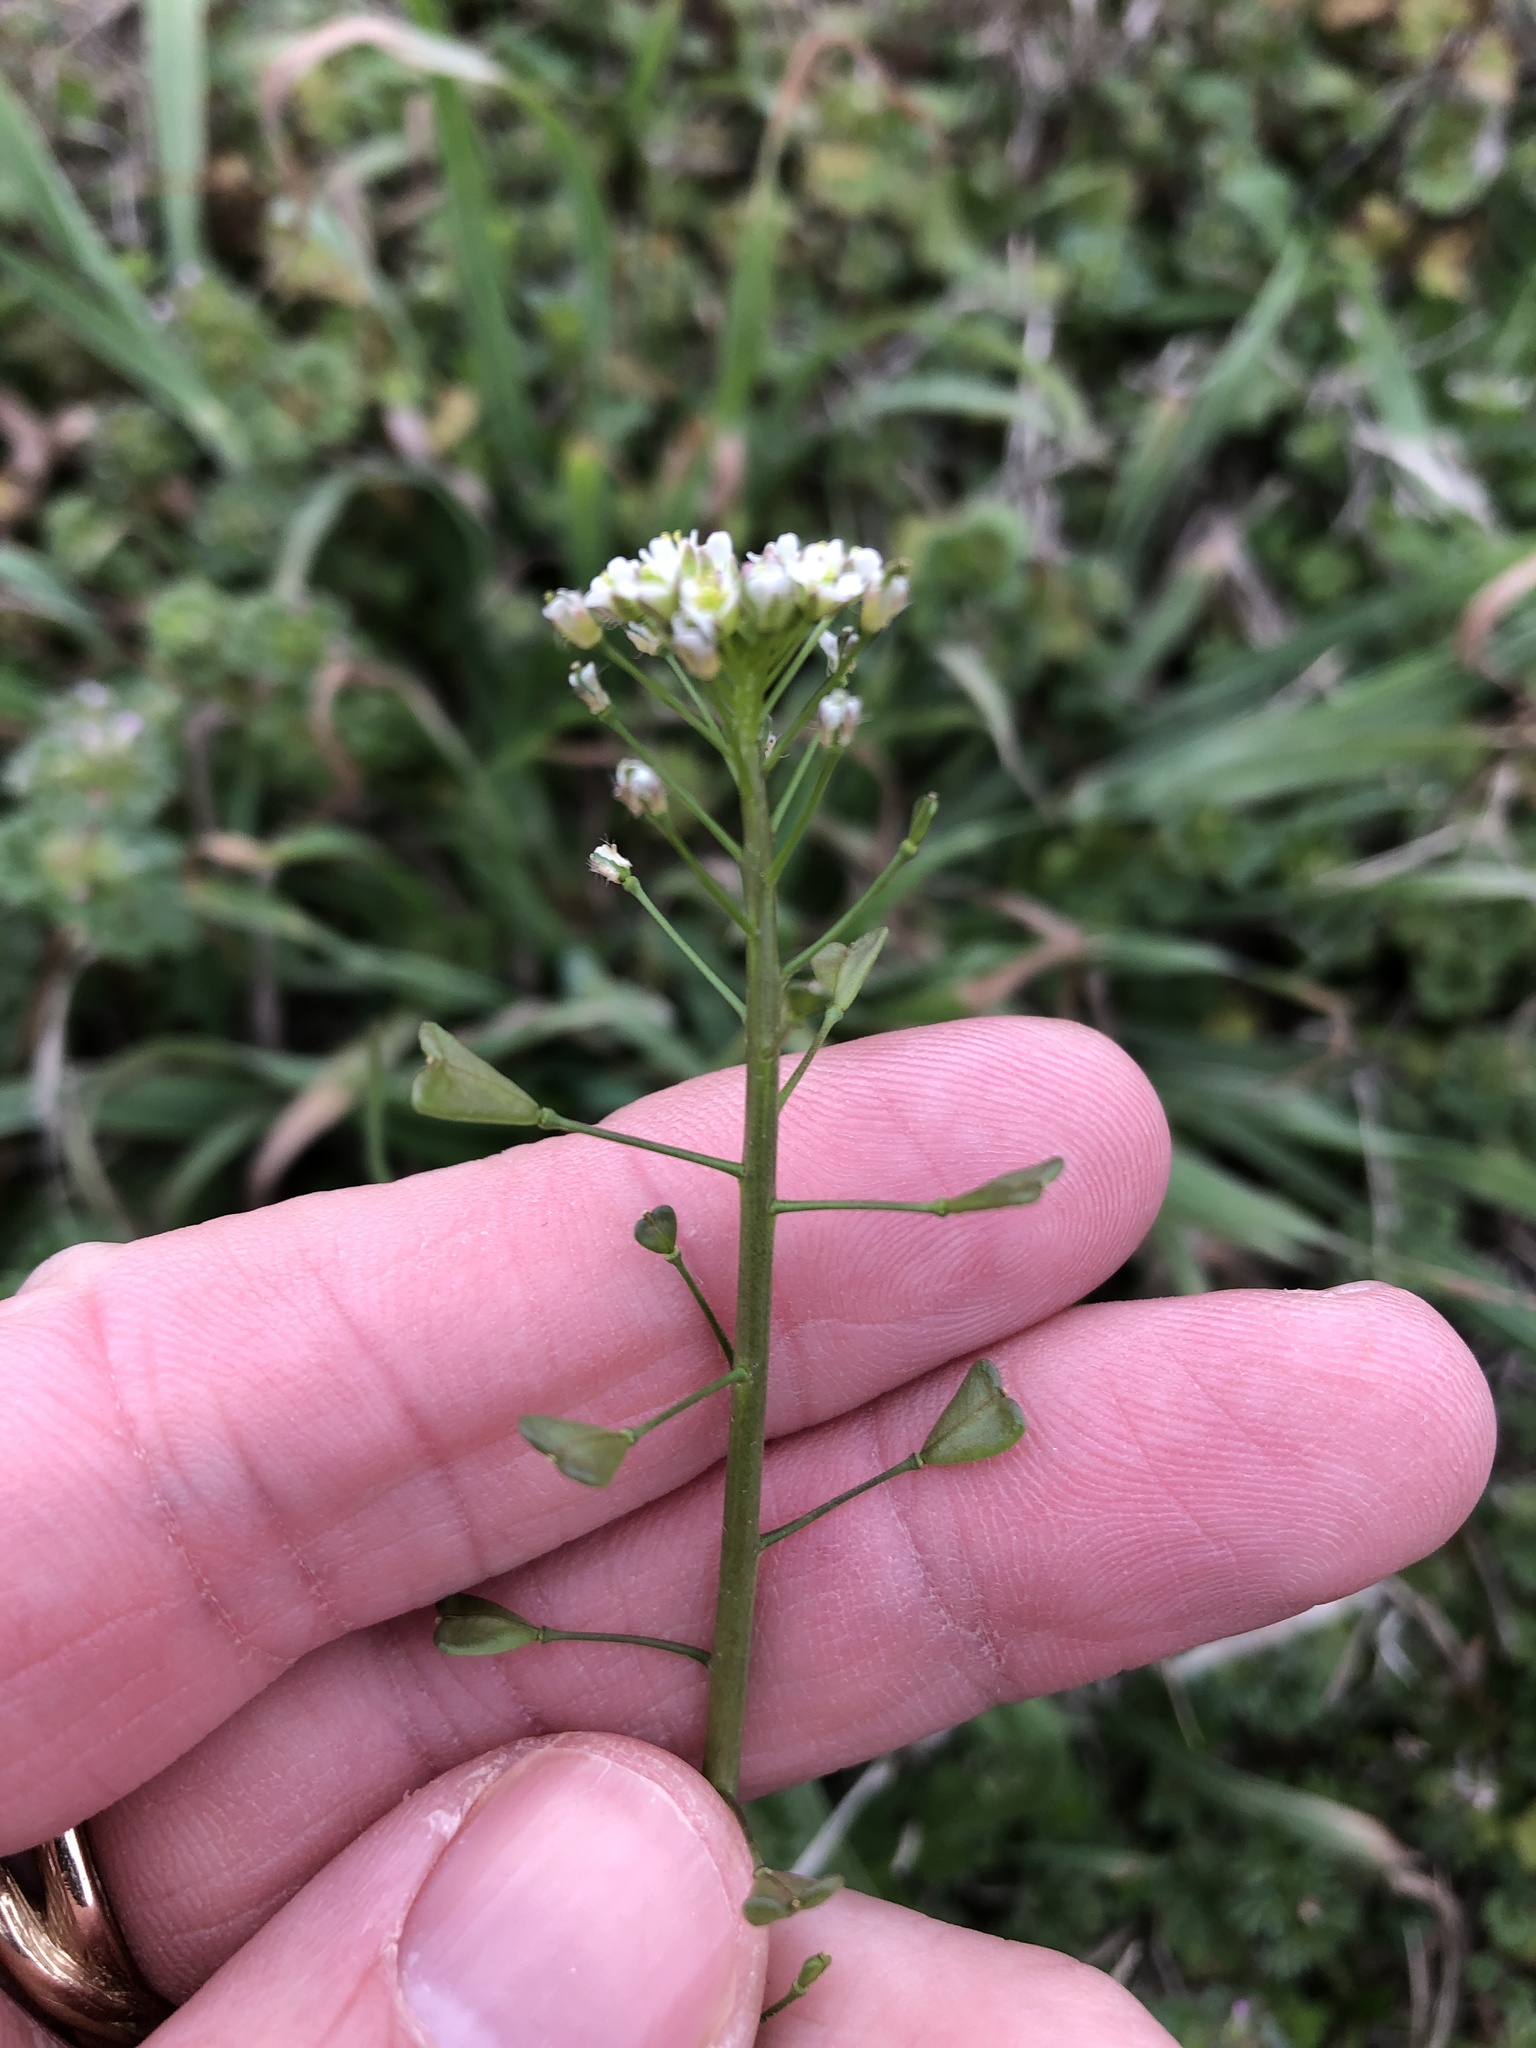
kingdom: Plantae
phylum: Tracheophyta
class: Magnoliopsida
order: Brassicales
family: Brassicaceae
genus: Capsella
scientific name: Capsella bursa-pastoris
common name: Shepherd's purse
